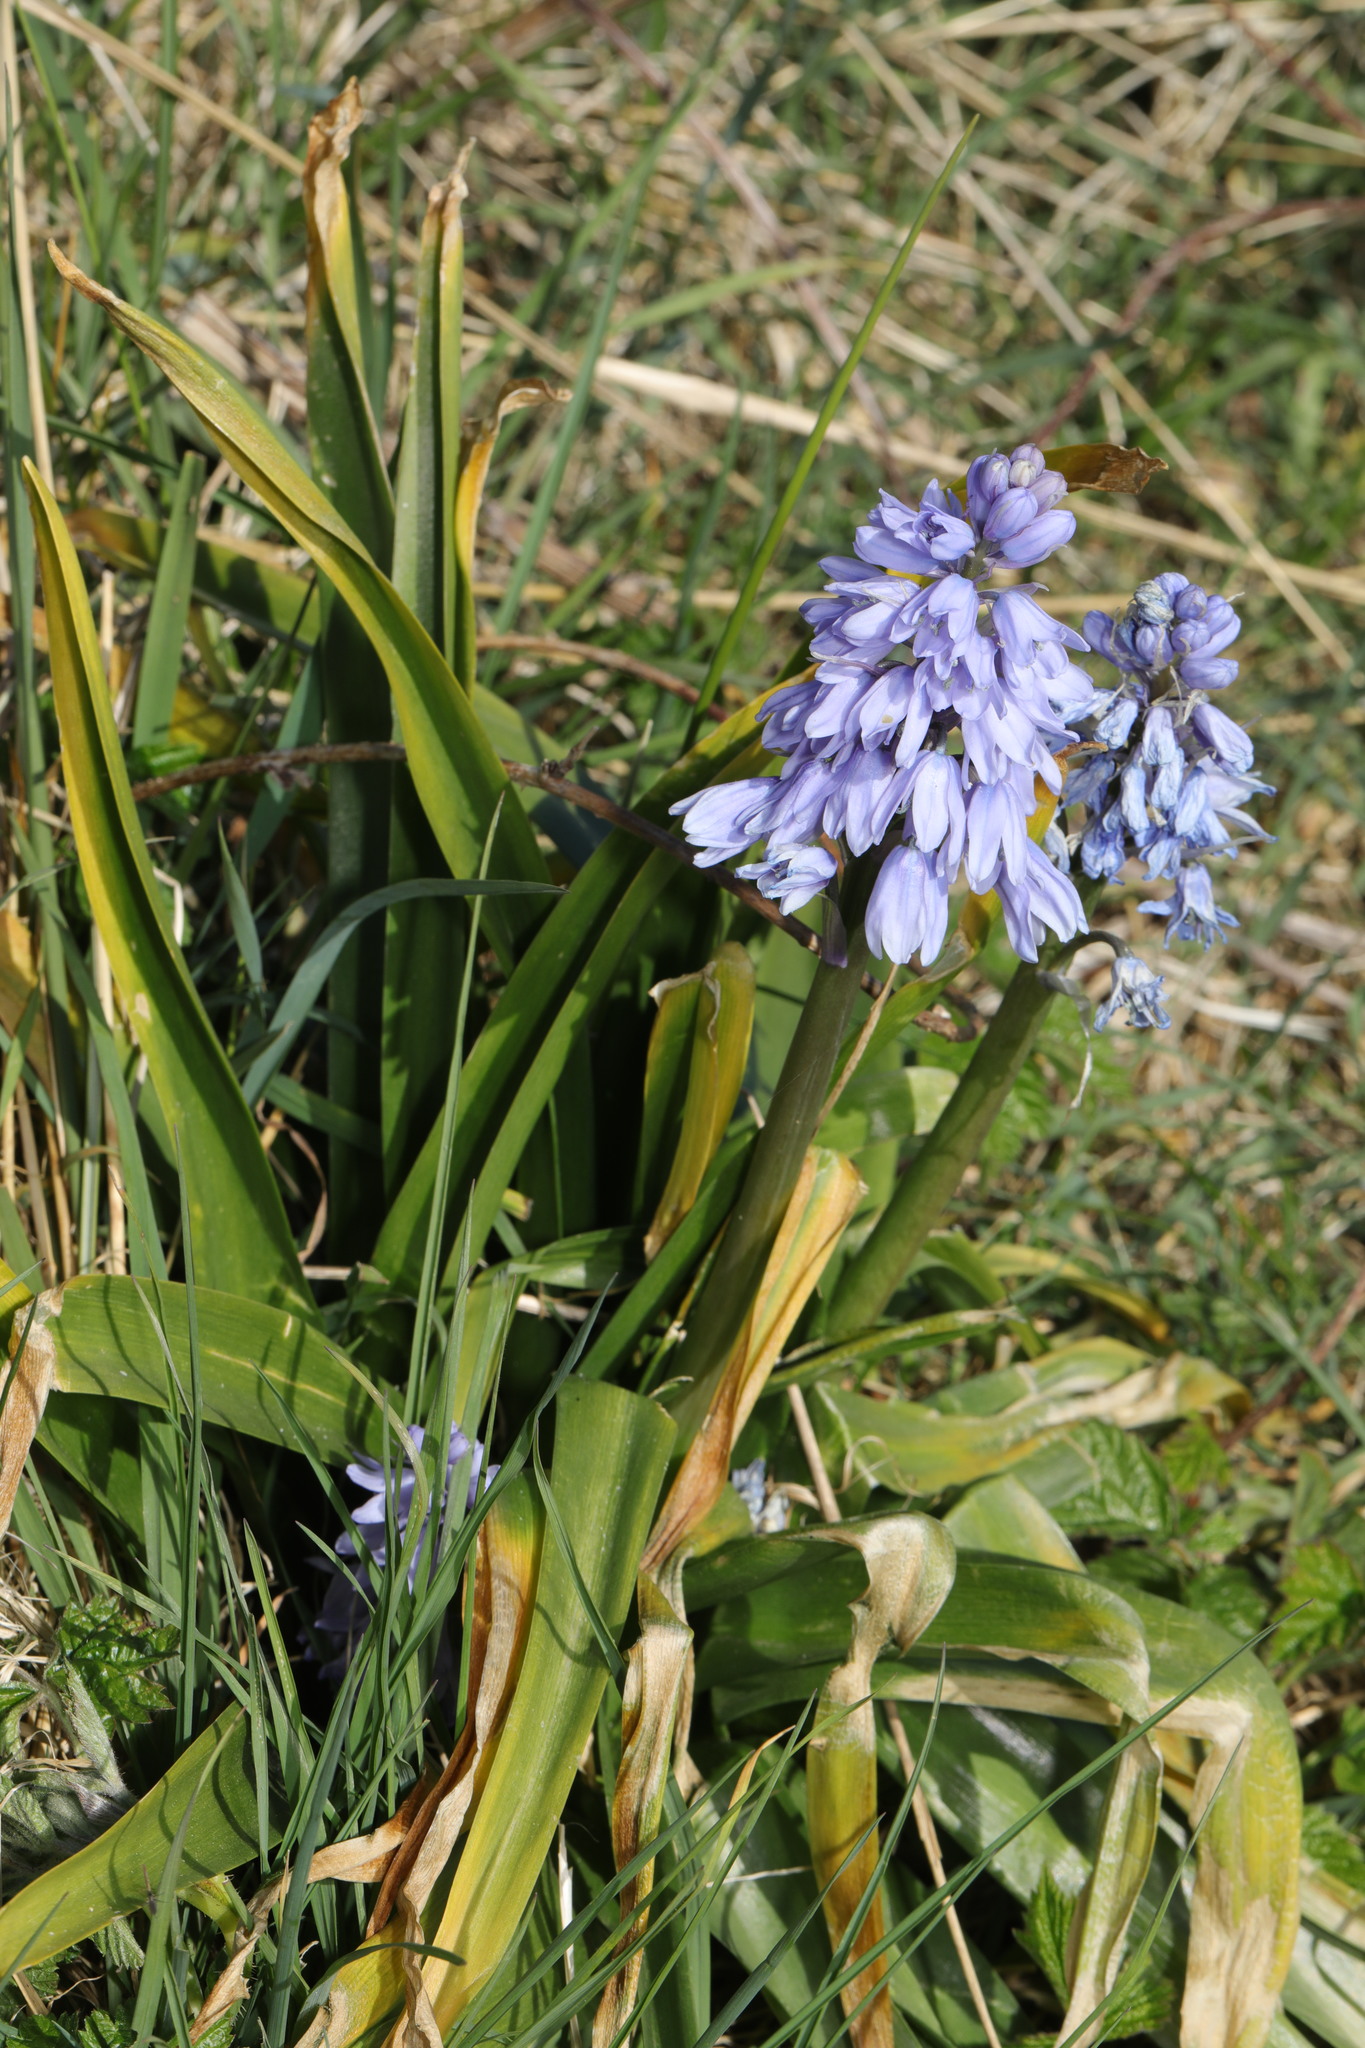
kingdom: Plantae
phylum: Tracheophyta
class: Liliopsida
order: Asparagales
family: Asparagaceae
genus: Hyacinthoides
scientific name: Hyacinthoides hispanica
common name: Spanish bluebell
